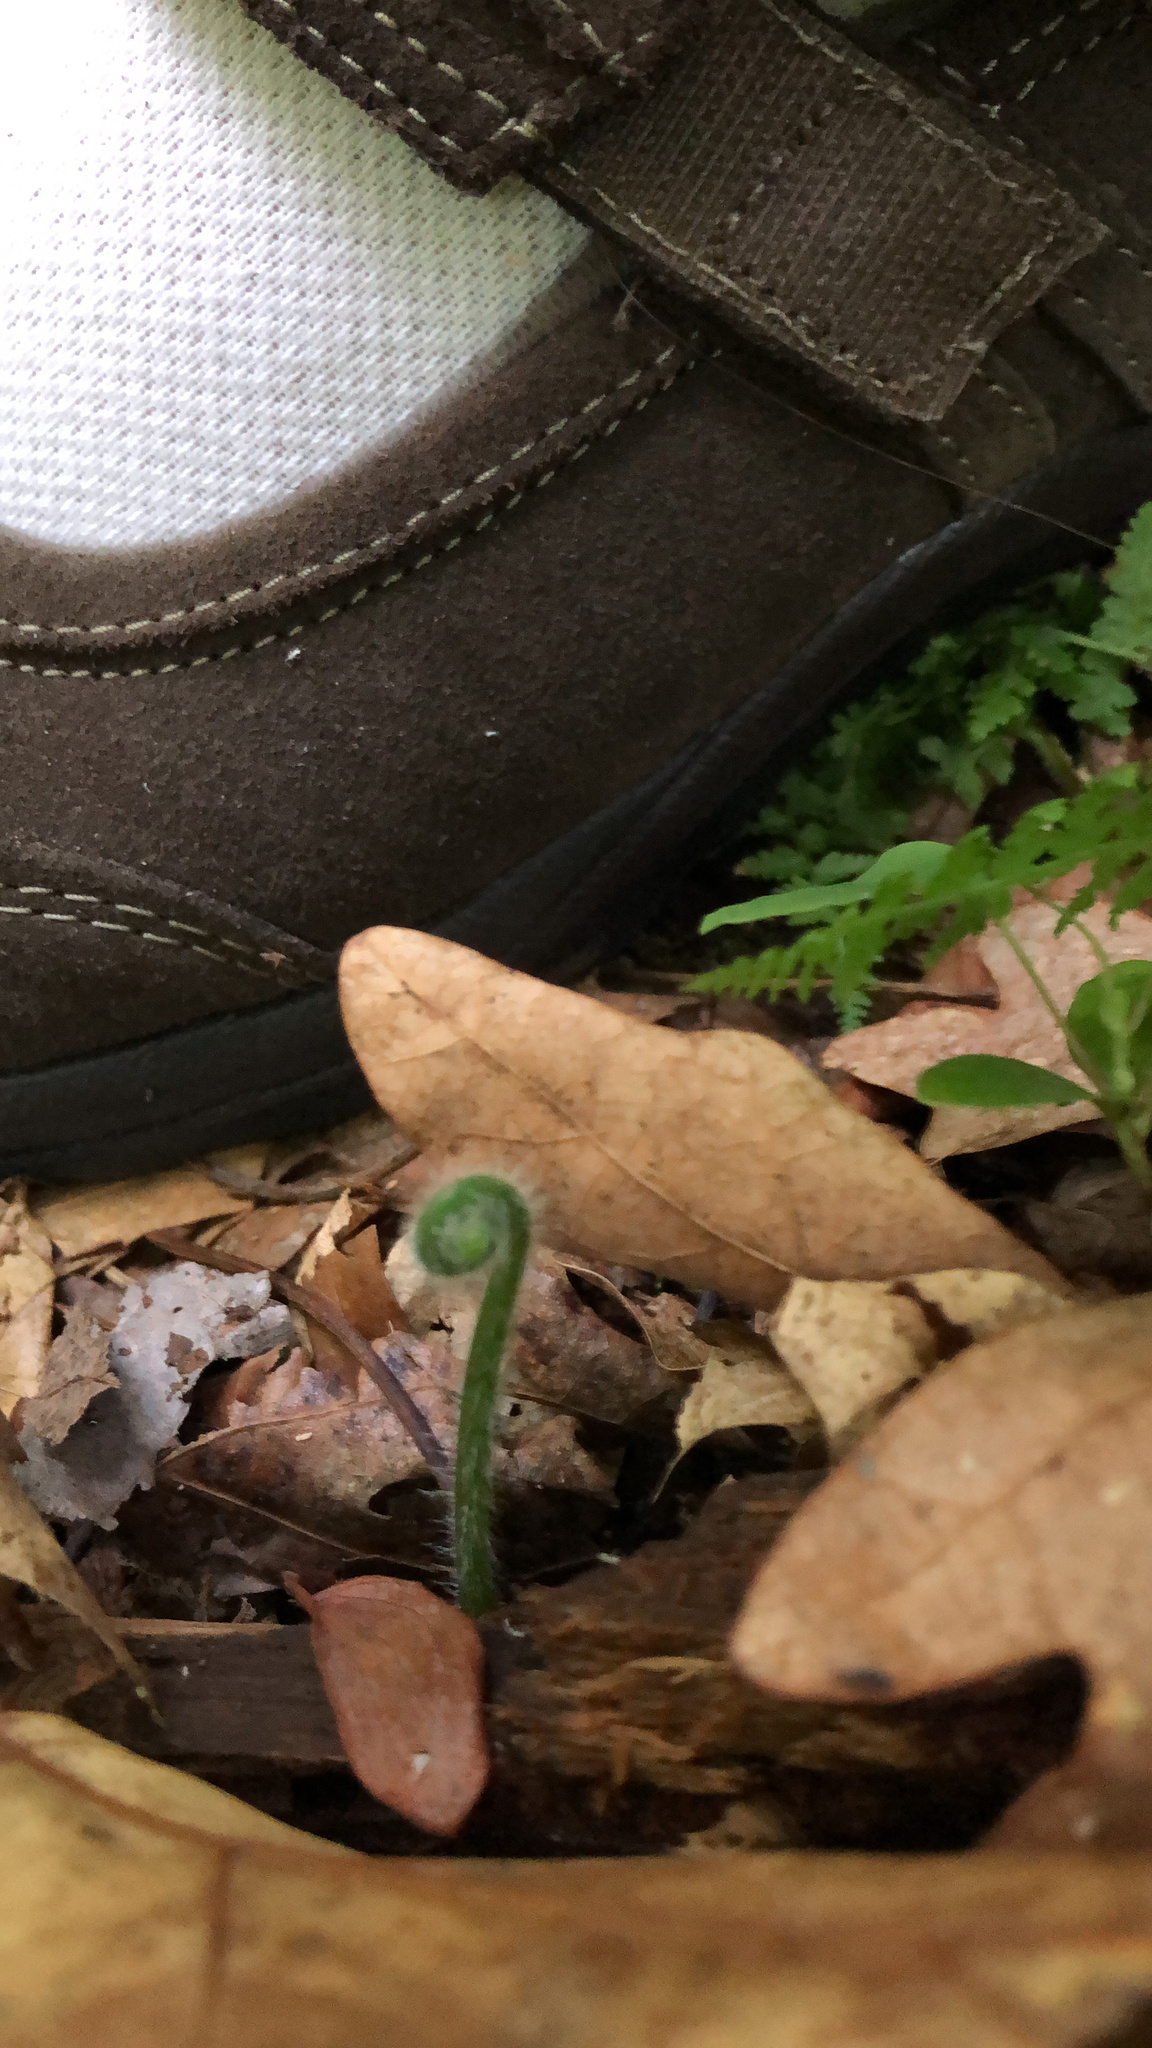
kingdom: Plantae
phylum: Tracheophyta
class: Polypodiopsida
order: Polypodiales
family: Dennstaedtiaceae
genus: Sitobolium
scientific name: Sitobolium punctilobum
